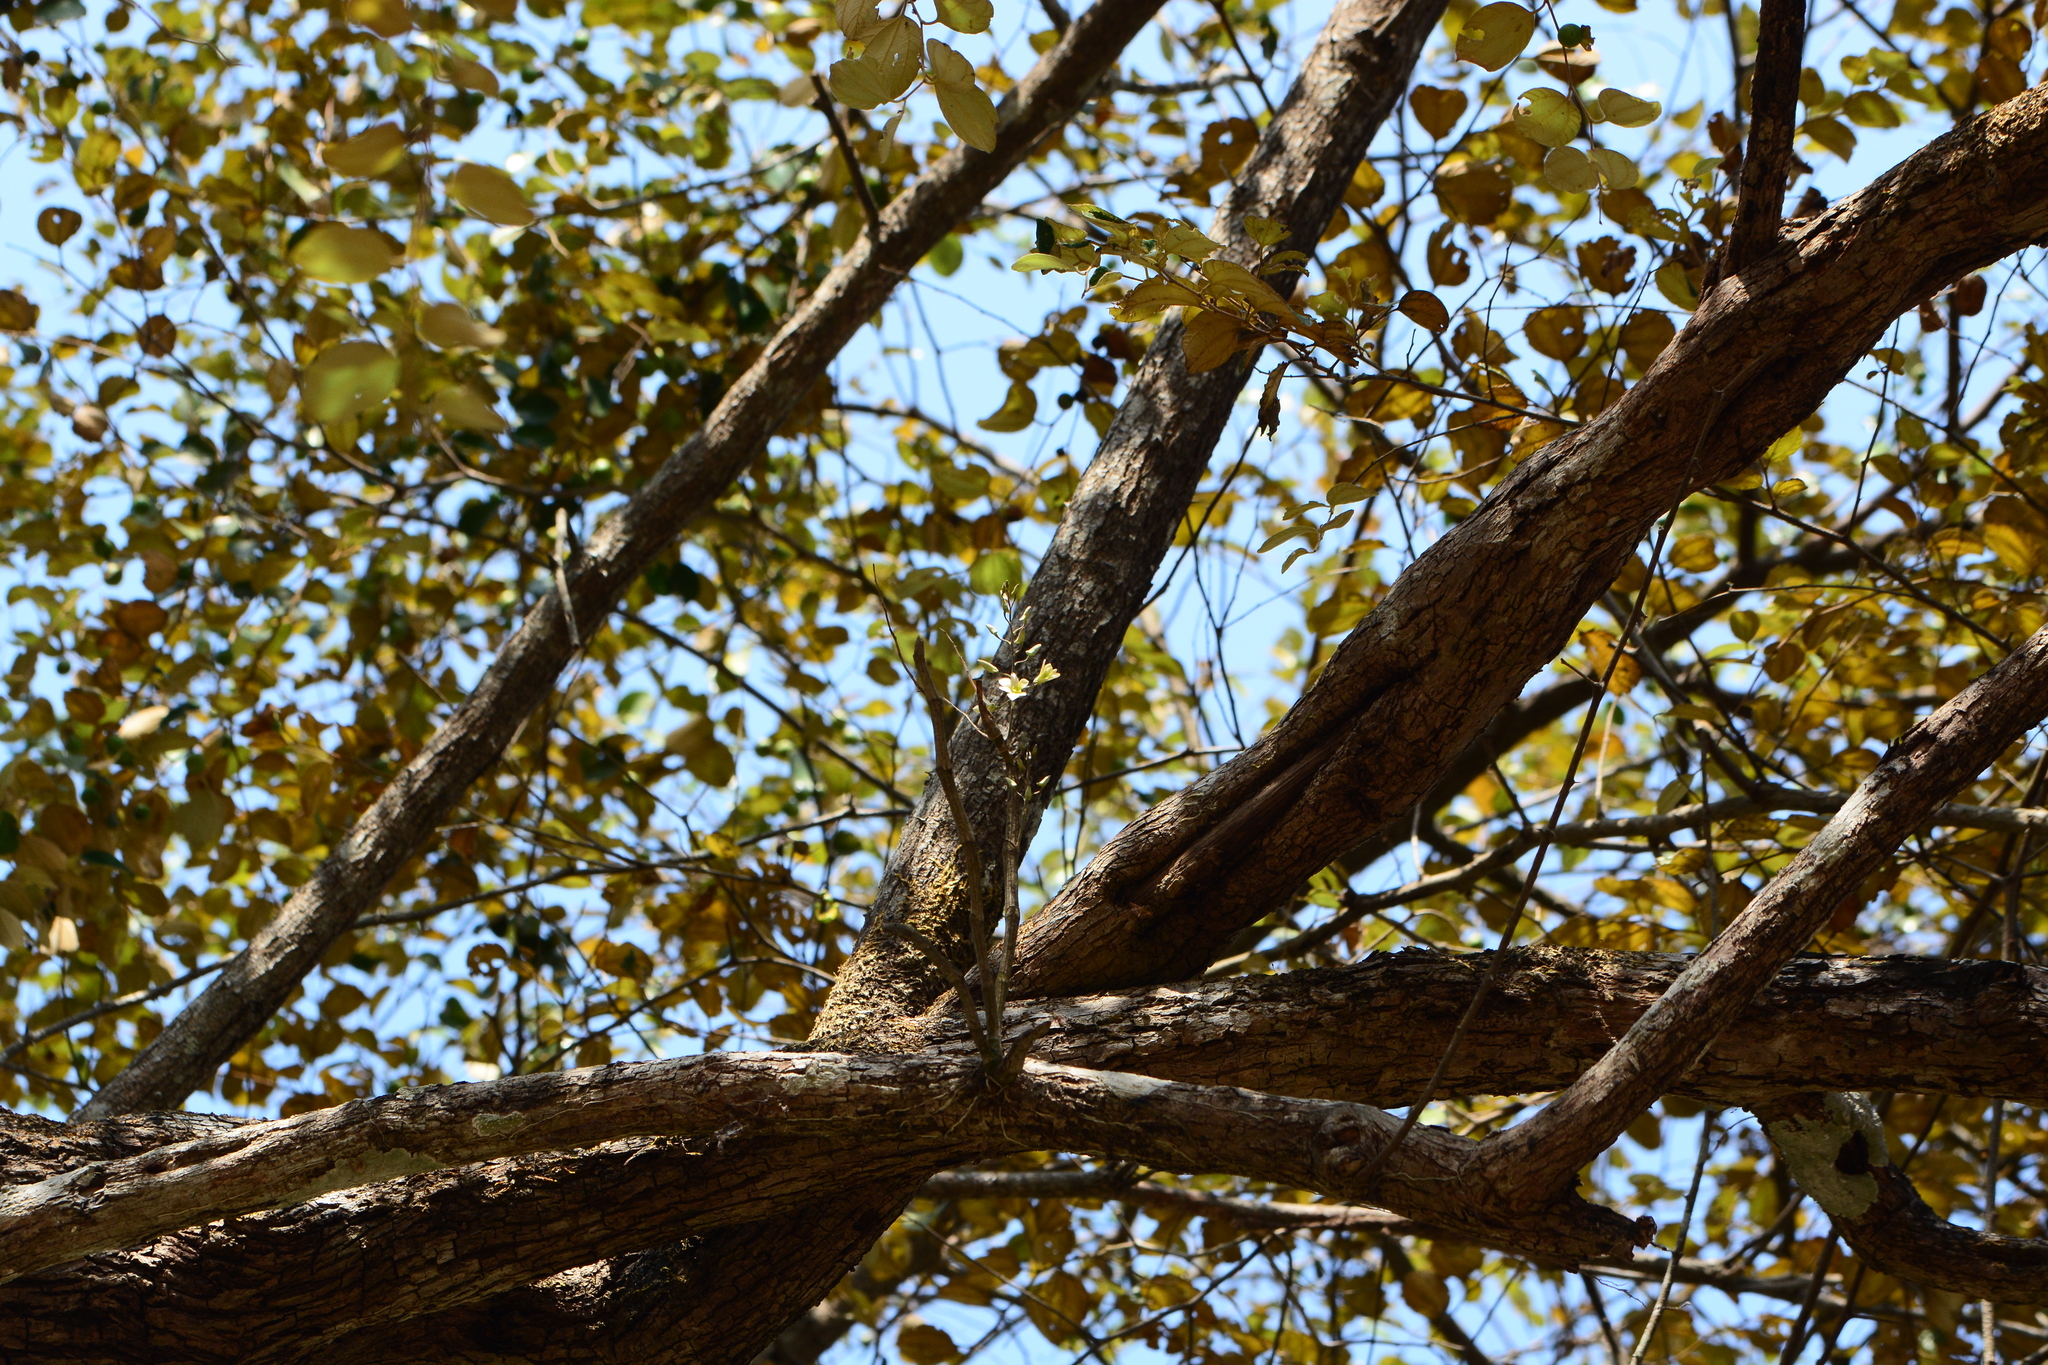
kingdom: Plantae
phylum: Tracheophyta
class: Liliopsida
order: Asparagales
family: Orchidaceae
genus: Dendrobium
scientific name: Dendrobium ovatum
